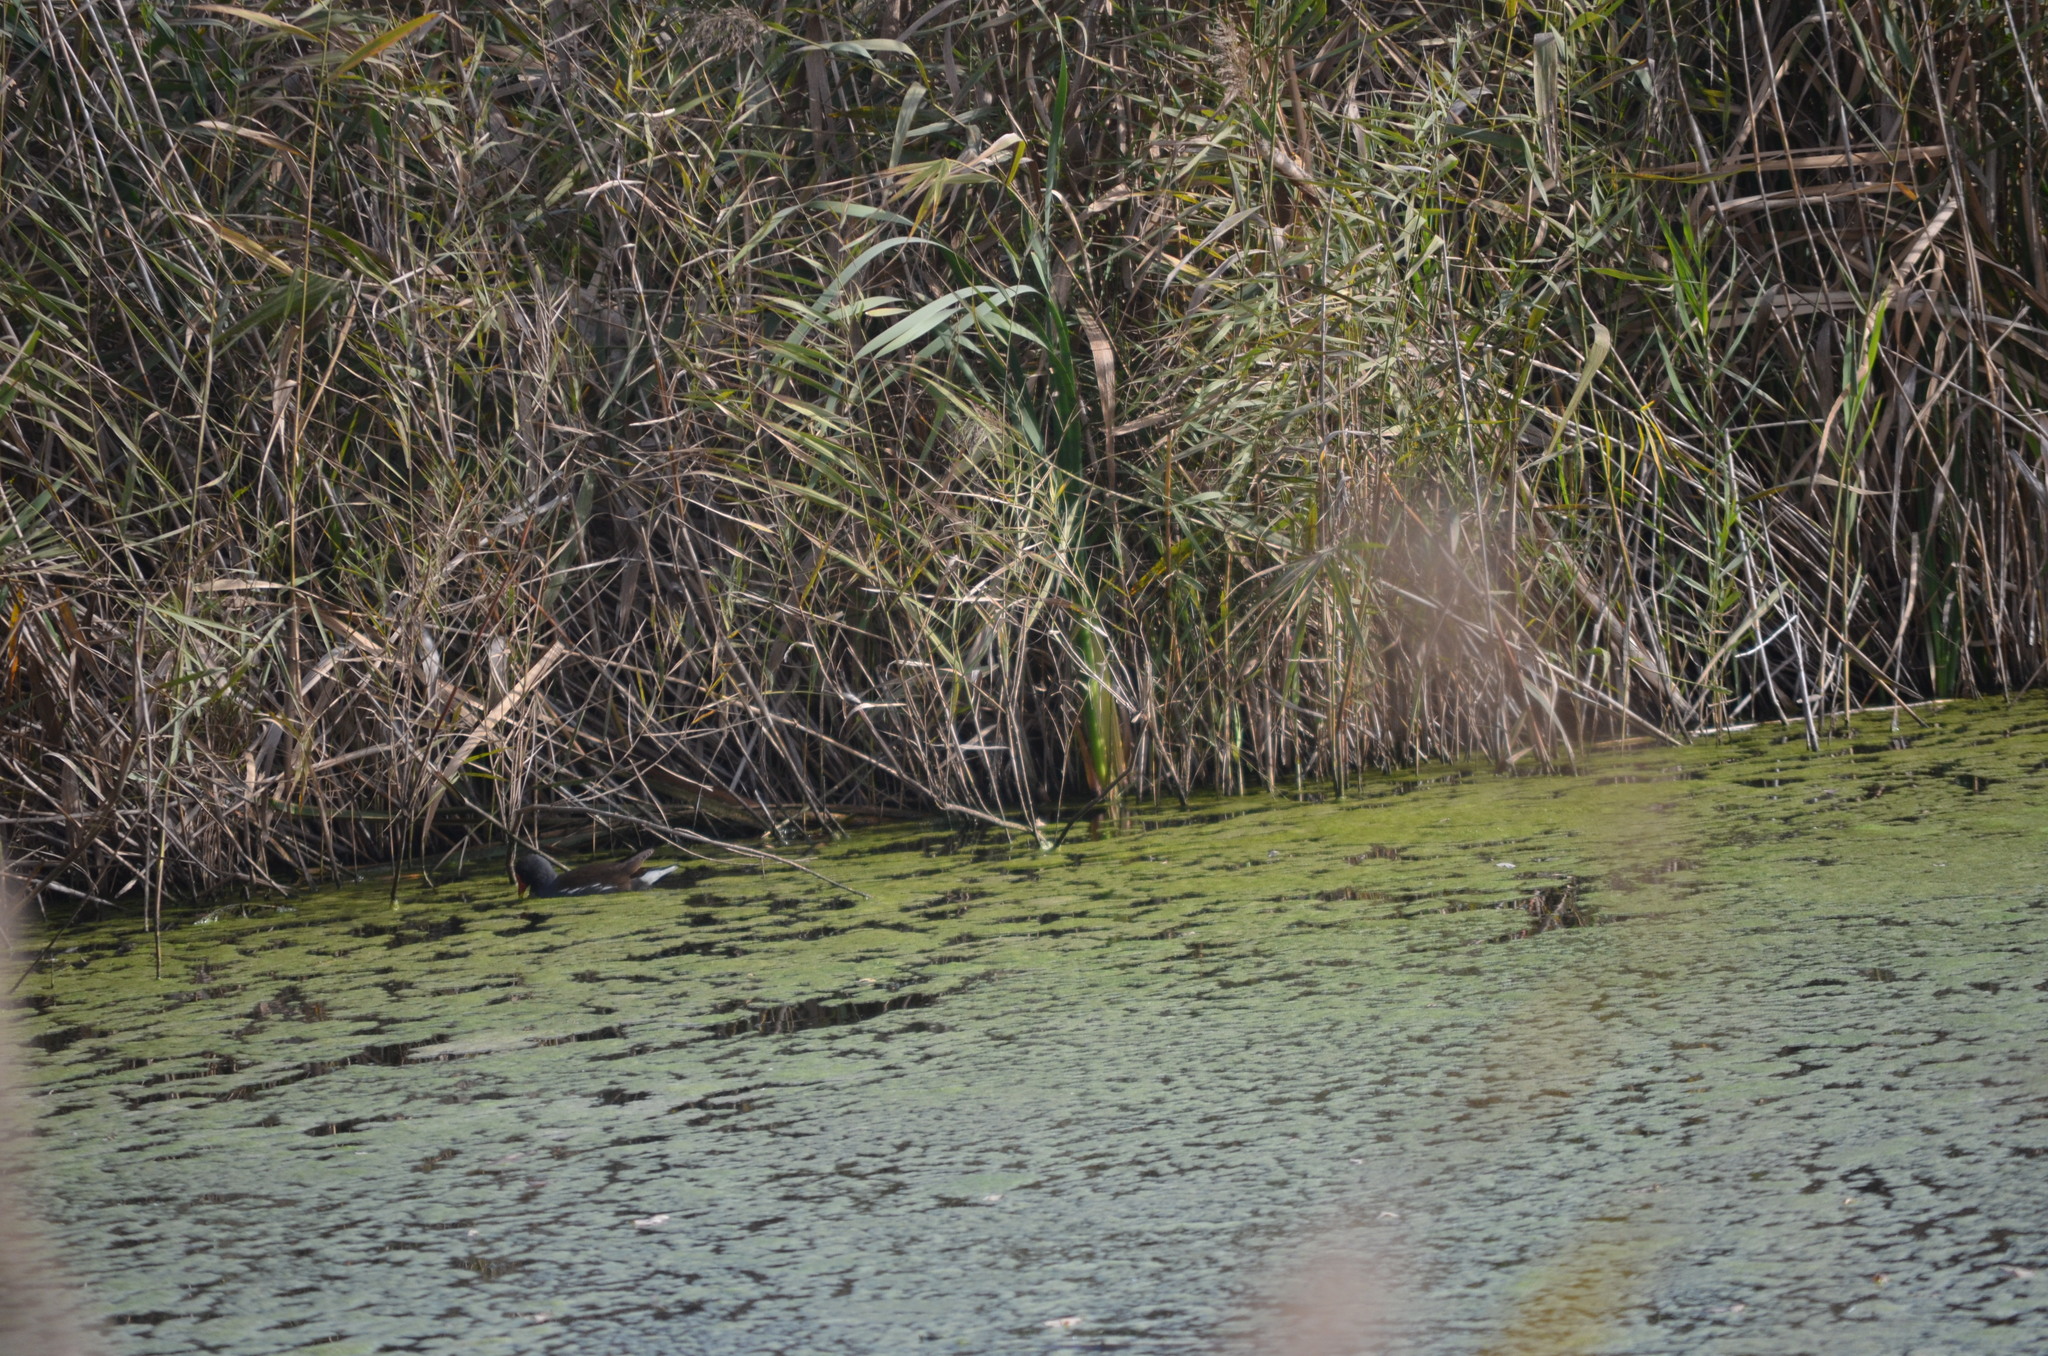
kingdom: Animalia
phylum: Chordata
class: Aves
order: Gruiformes
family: Rallidae
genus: Gallinula
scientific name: Gallinula chloropus
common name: Common moorhen
